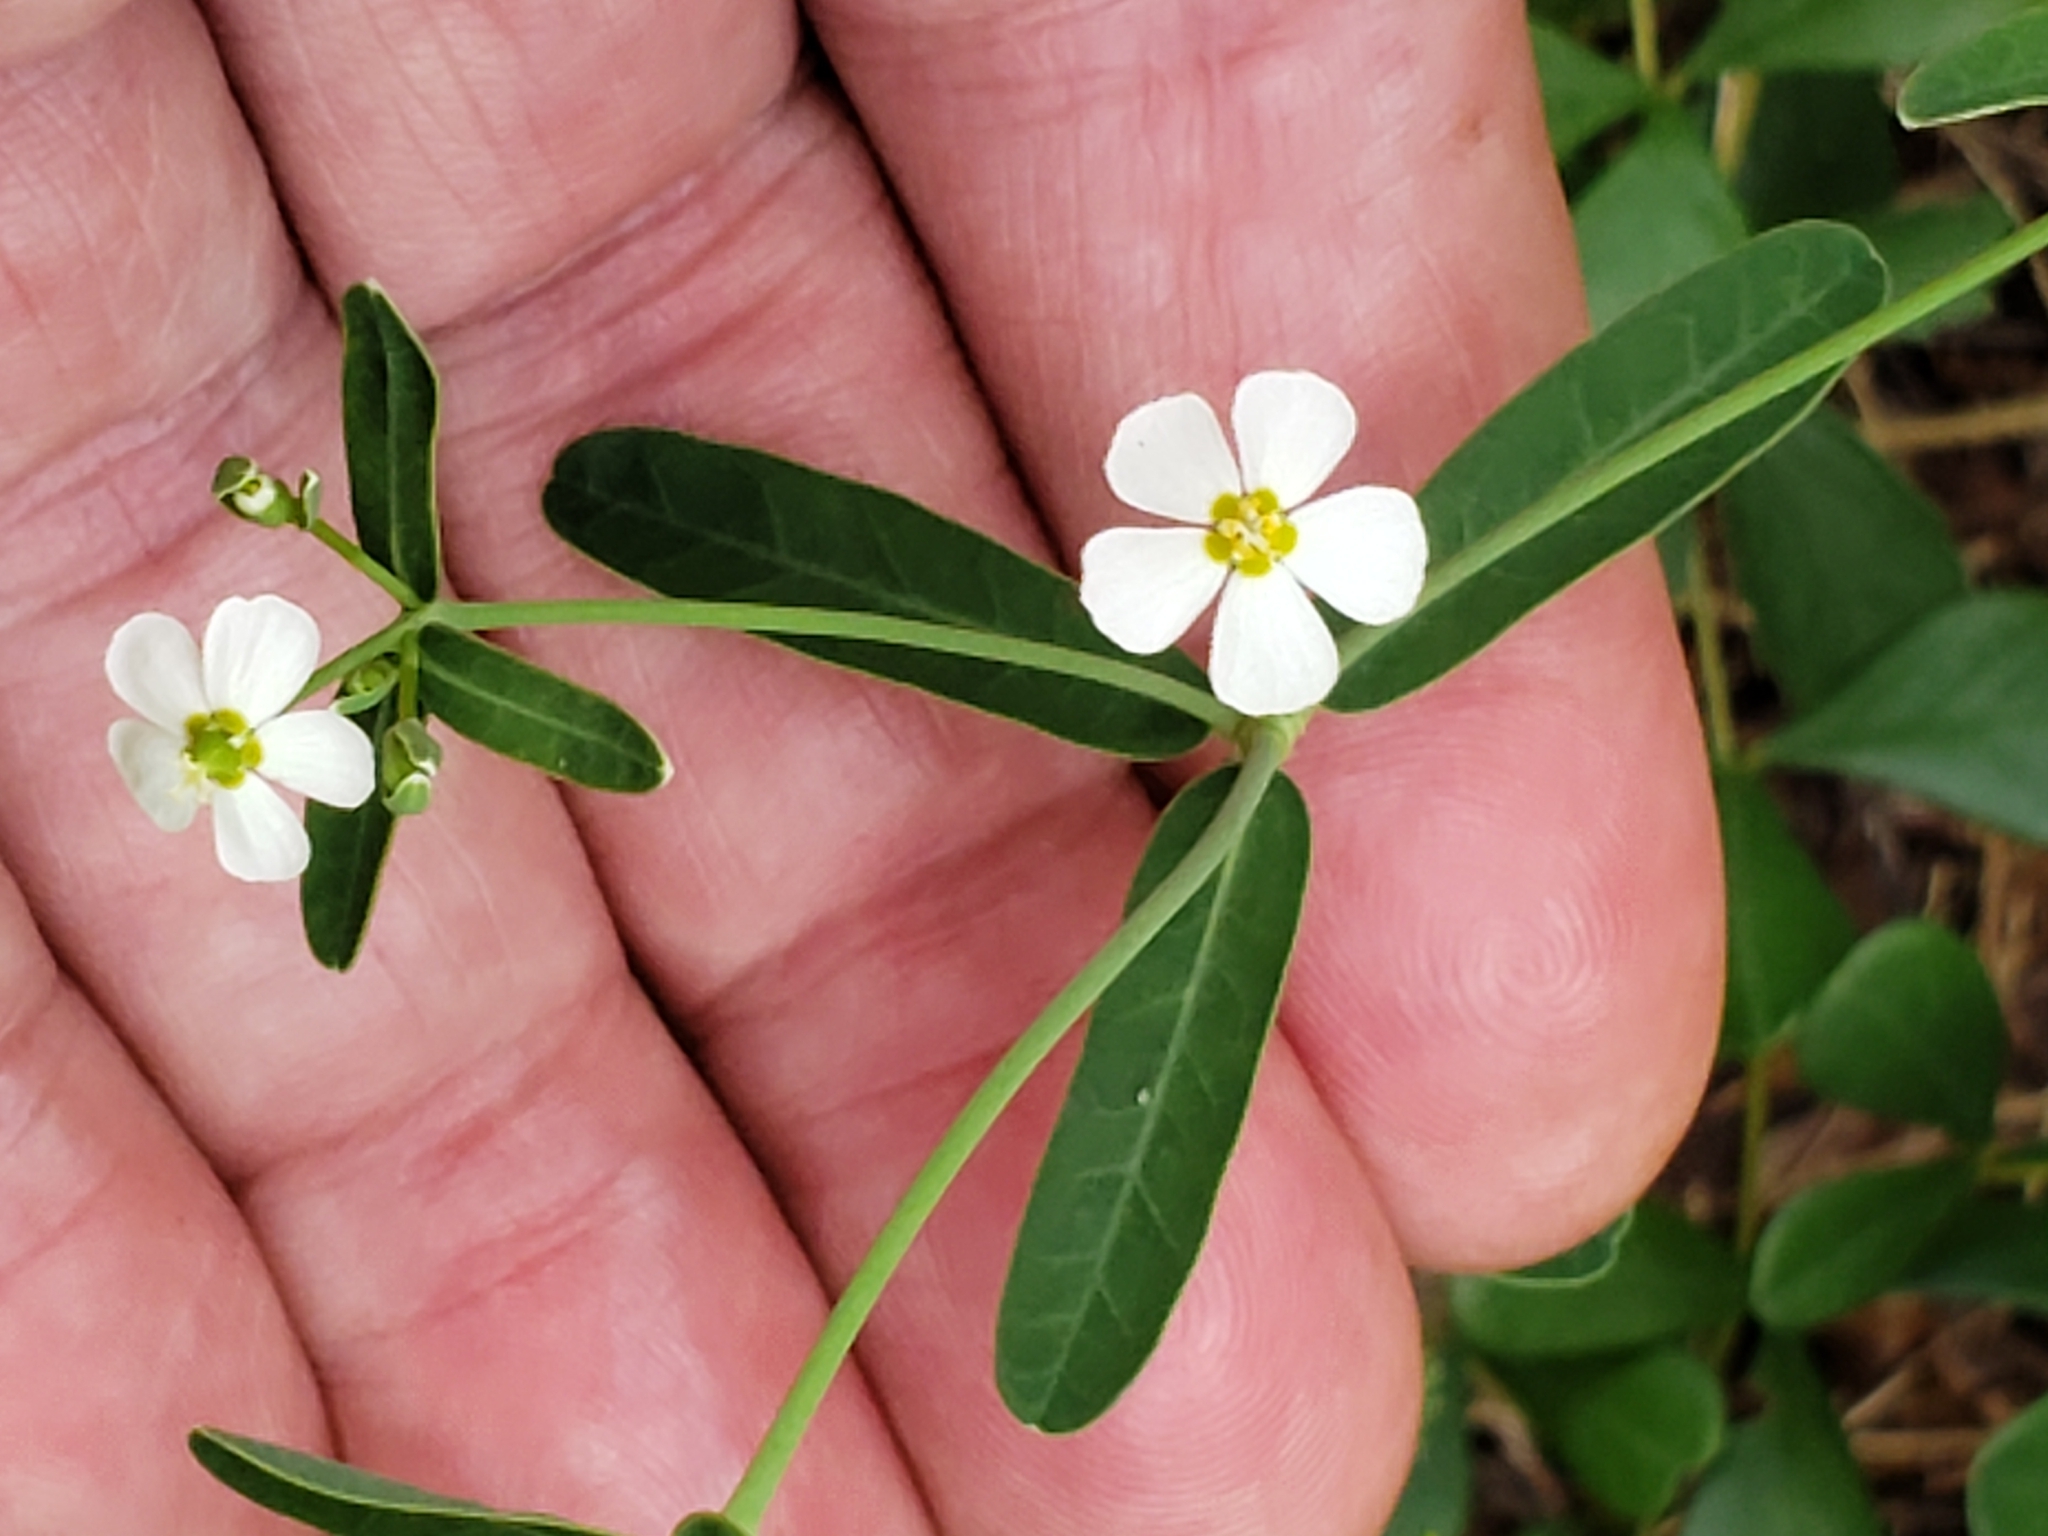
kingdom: Plantae
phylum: Tracheophyta
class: Magnoliopsida
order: Malpighiales
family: Euphorbiaceae
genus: Euphorbia
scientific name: Euphorbia corollata
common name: Flowering spurge
